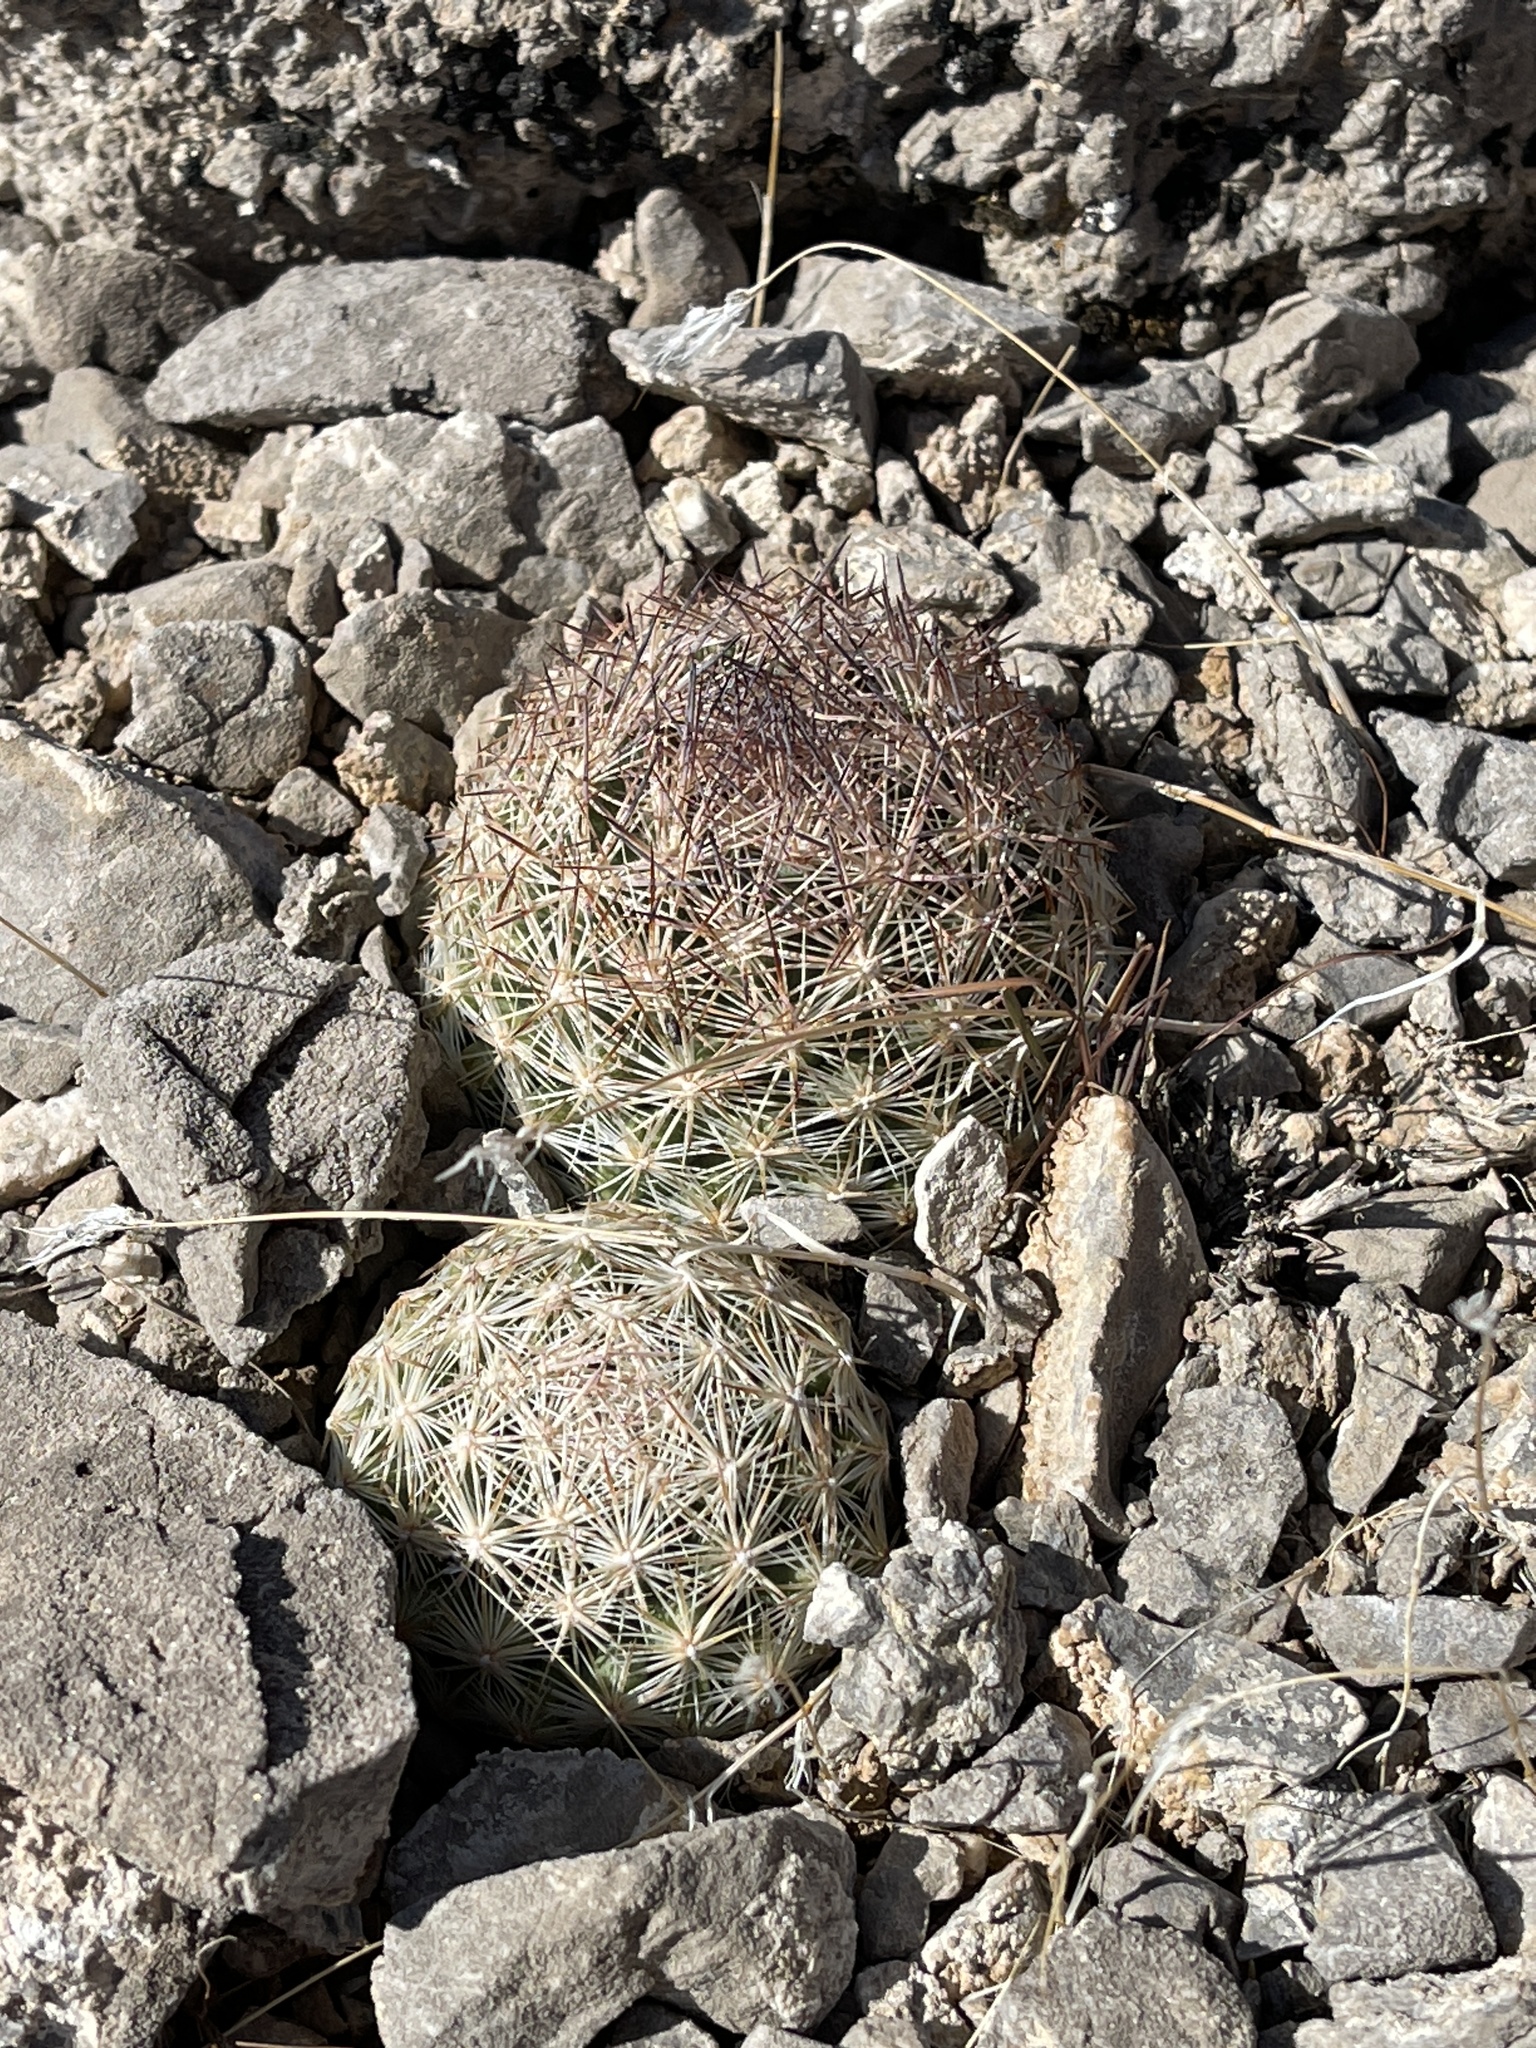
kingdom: Plantae
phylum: Tracheophyta
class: Magnoliopsida
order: Caryophyllales
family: Cactaceae
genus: Pelecyphora
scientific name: Pelecyphora vivipara
